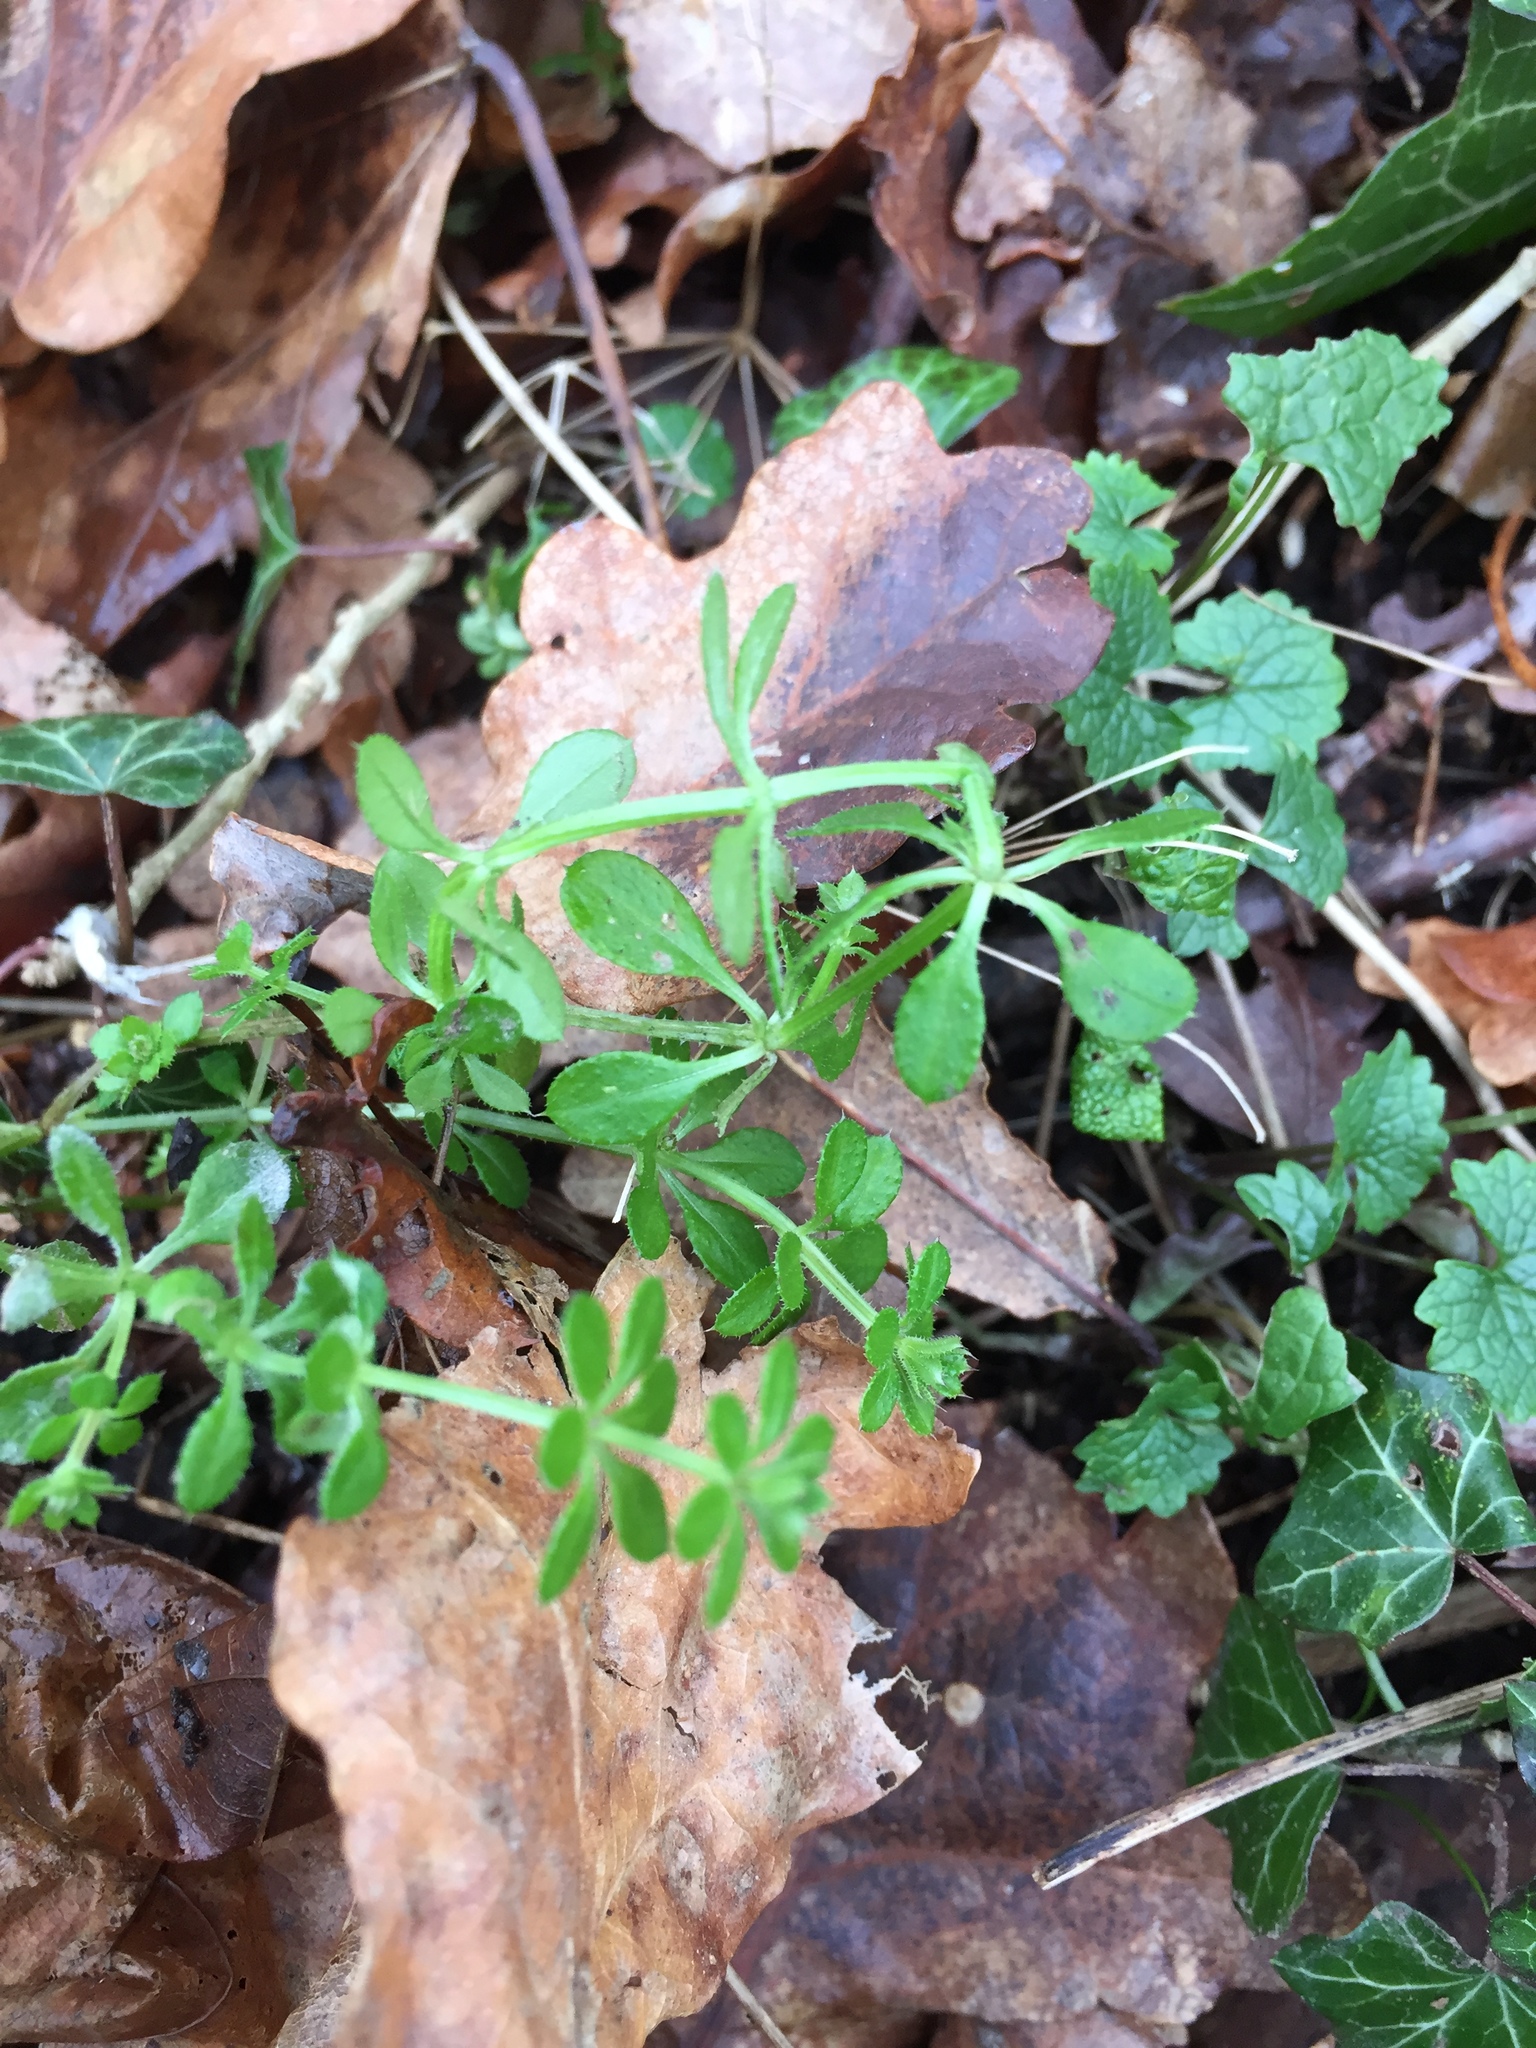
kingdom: Plantae
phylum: Tracheophyta
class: Magnoliopsida
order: Gentianales
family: Rubiaceae
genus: Galium
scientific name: Galium aparine
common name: Cleavers
